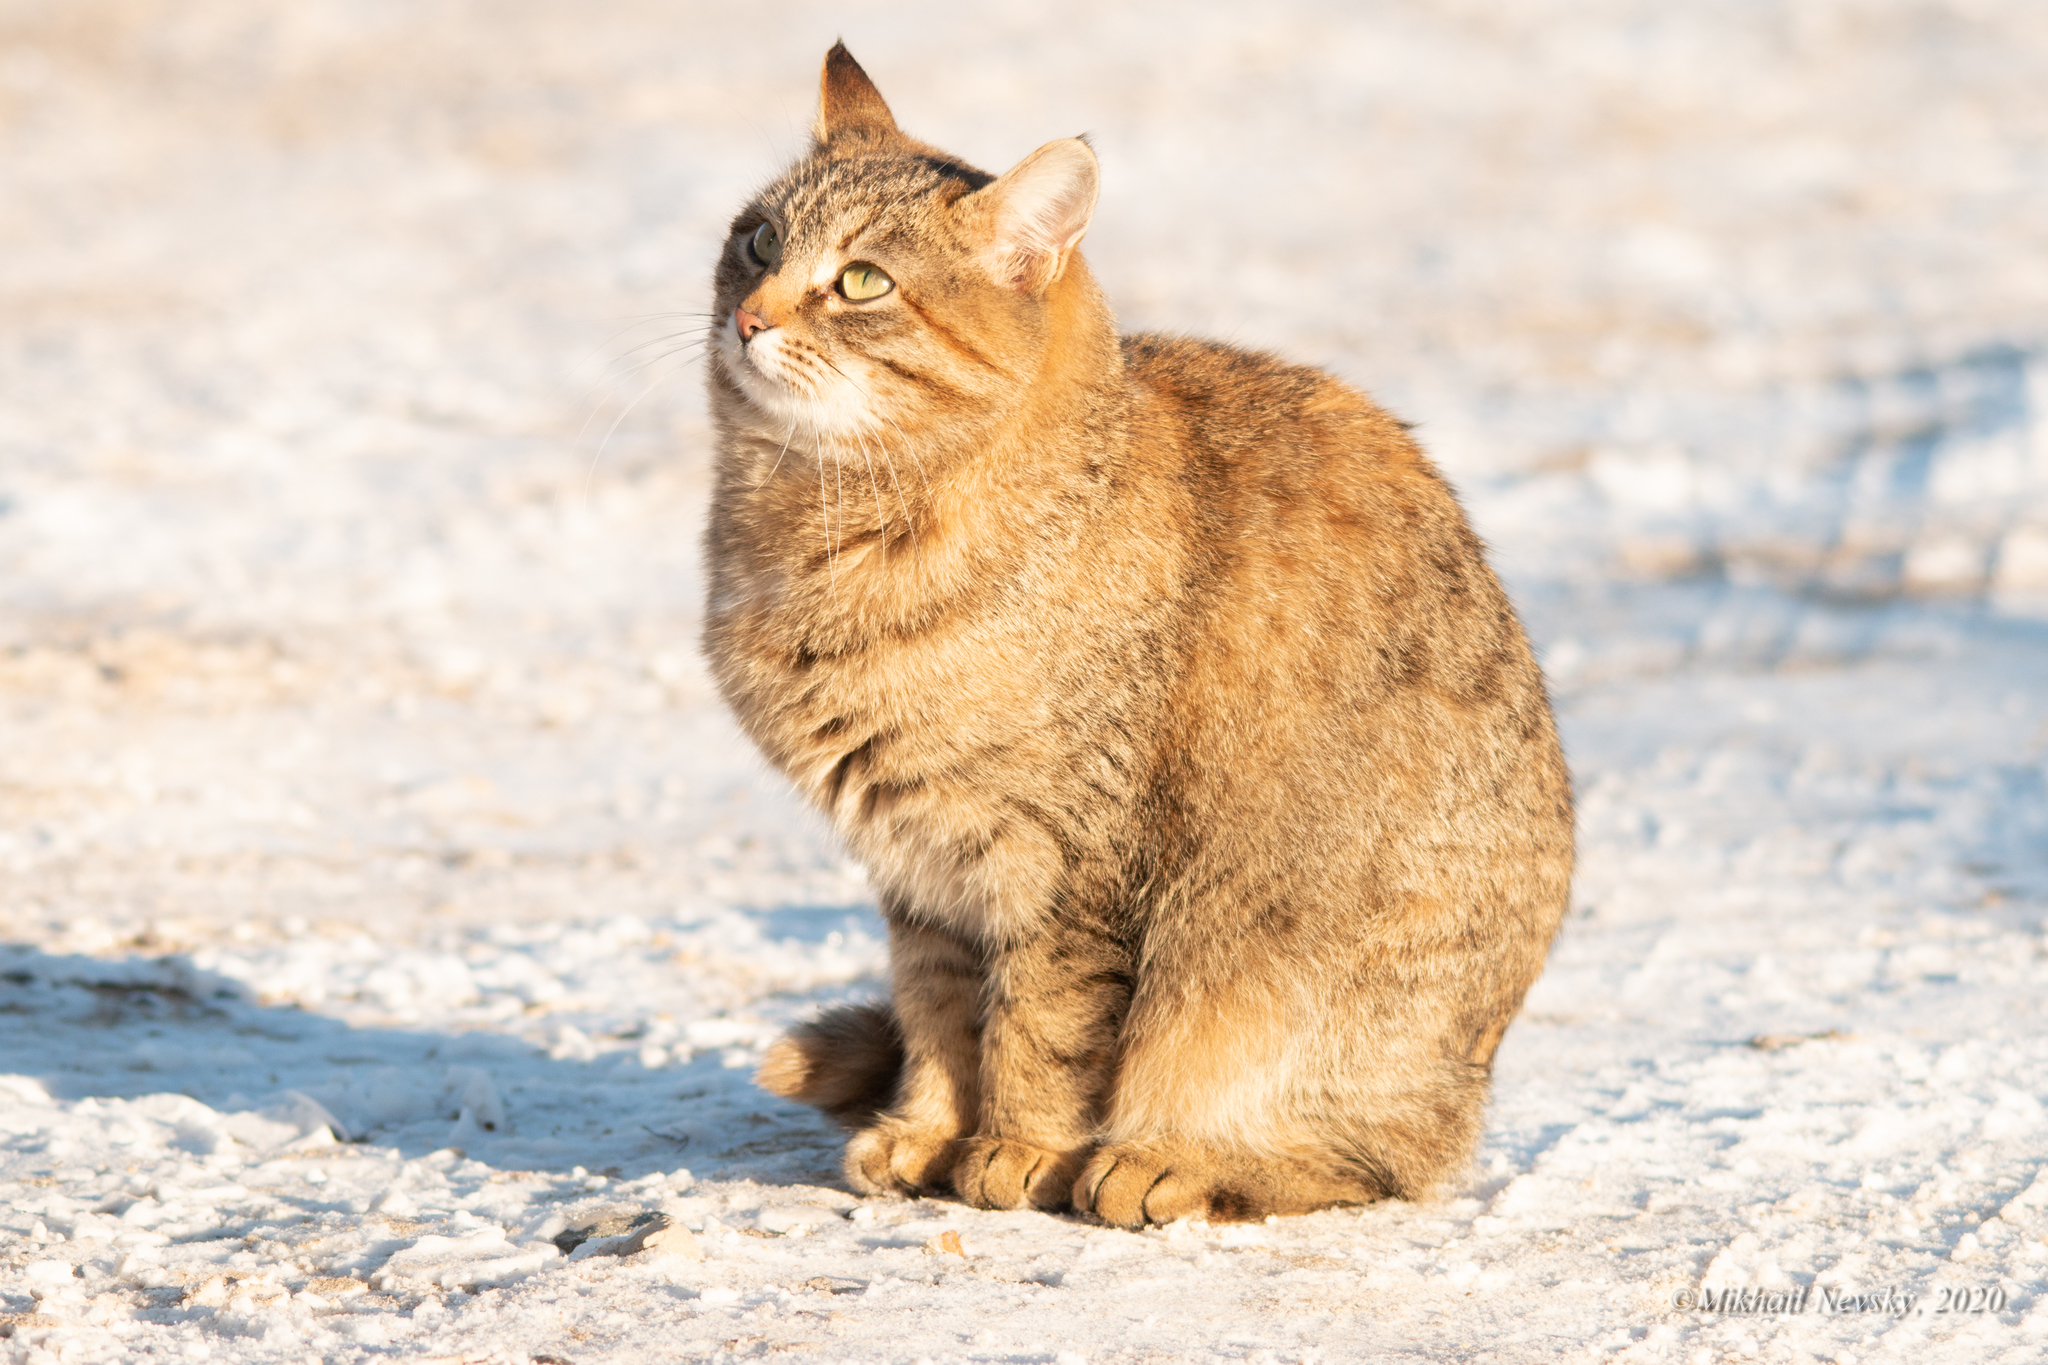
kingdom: Animalia
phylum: Chordata
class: Mammalia
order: Carnivora
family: Felidae
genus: Felis
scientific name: Felis catus
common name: Domestic cat
